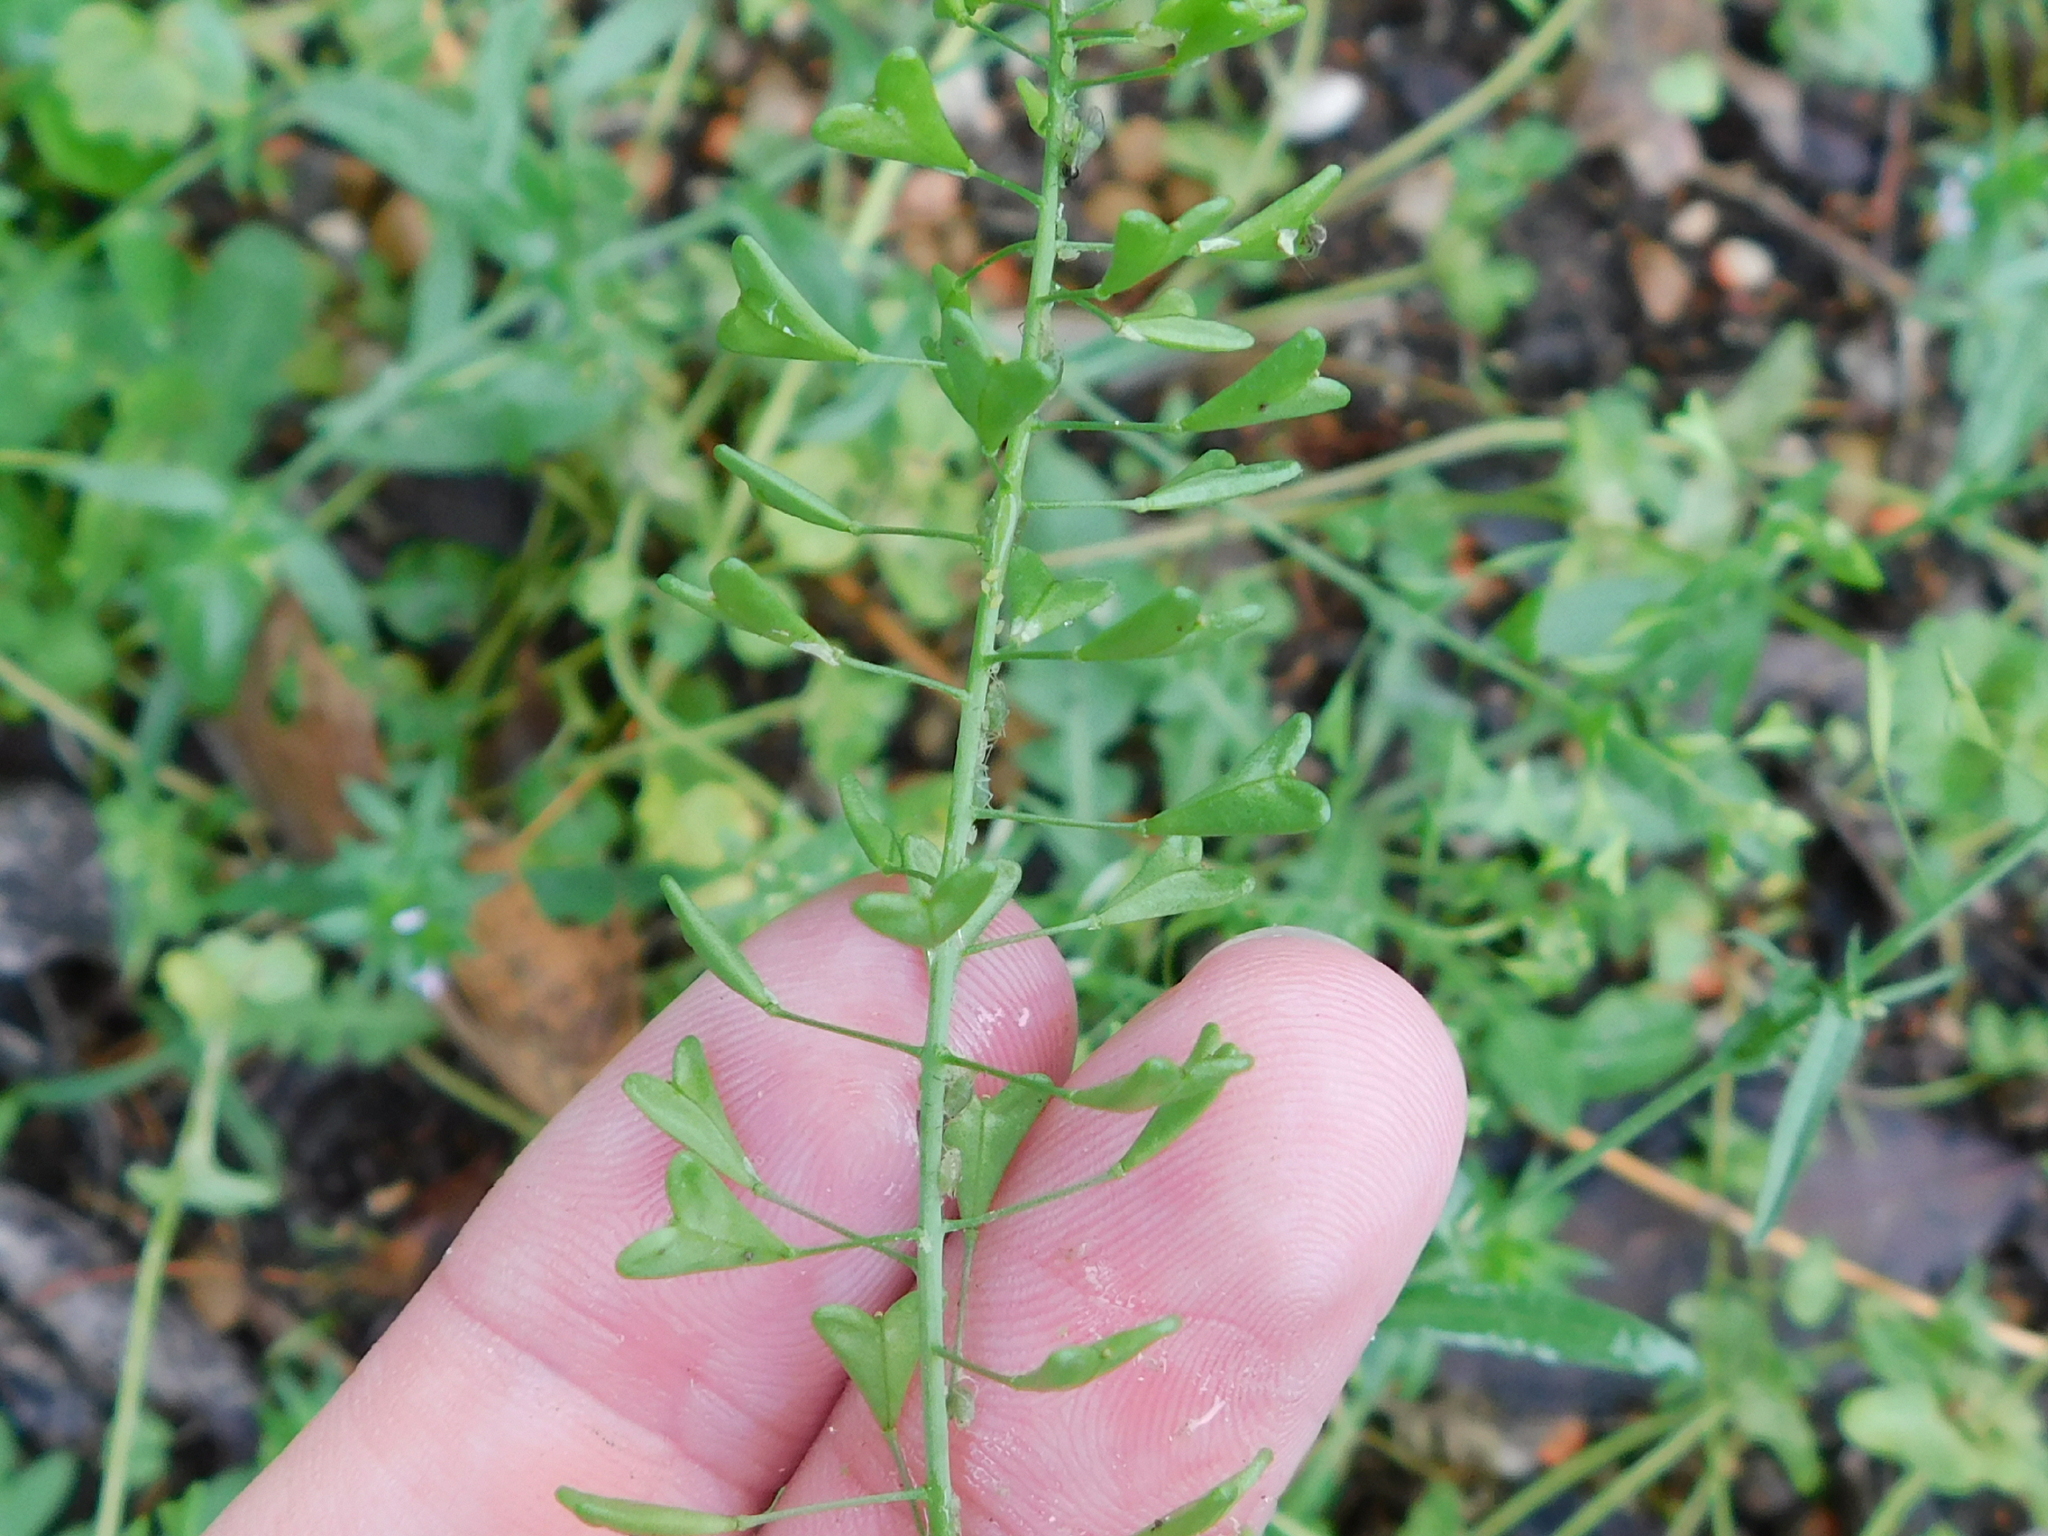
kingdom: Plantae
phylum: Tracheophyta
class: Magnoliopsida
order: Brassicales
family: Brassicaceae
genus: Capsella
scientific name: Capsella bursa-pastoris
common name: Shepherd's purse
